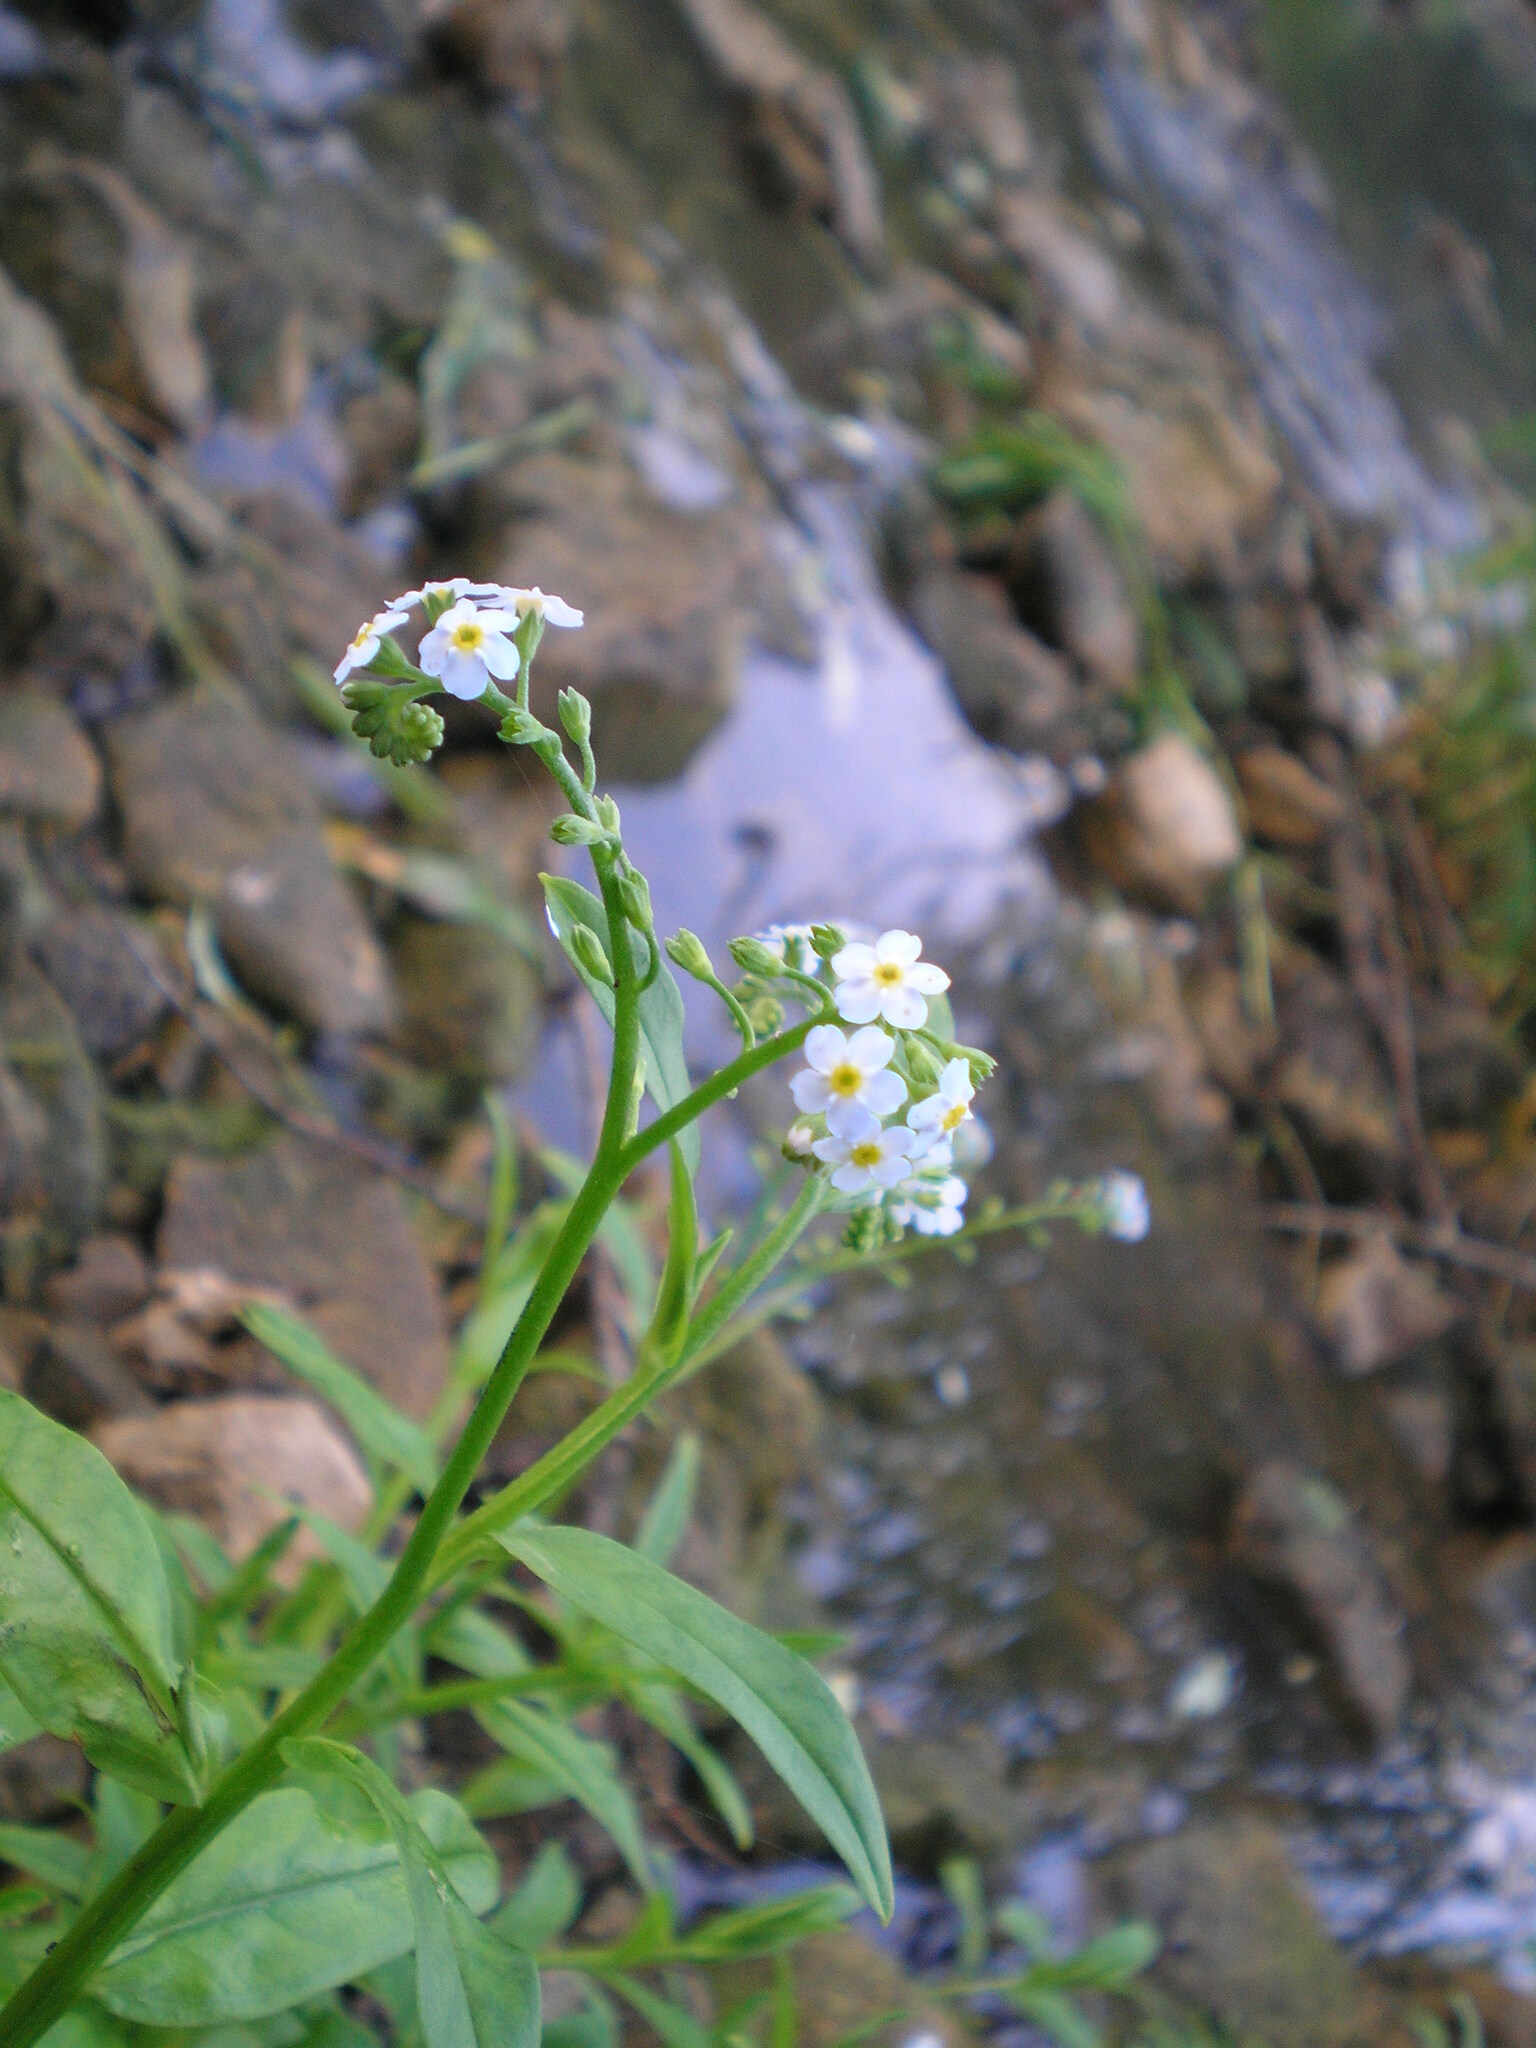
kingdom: Plantae
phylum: Tracheophyta
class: Magnoliopsida
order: Boraginales
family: Boraginaceae
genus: Myosotis
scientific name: Myosotis scorpioides
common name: Water forget-me-not
